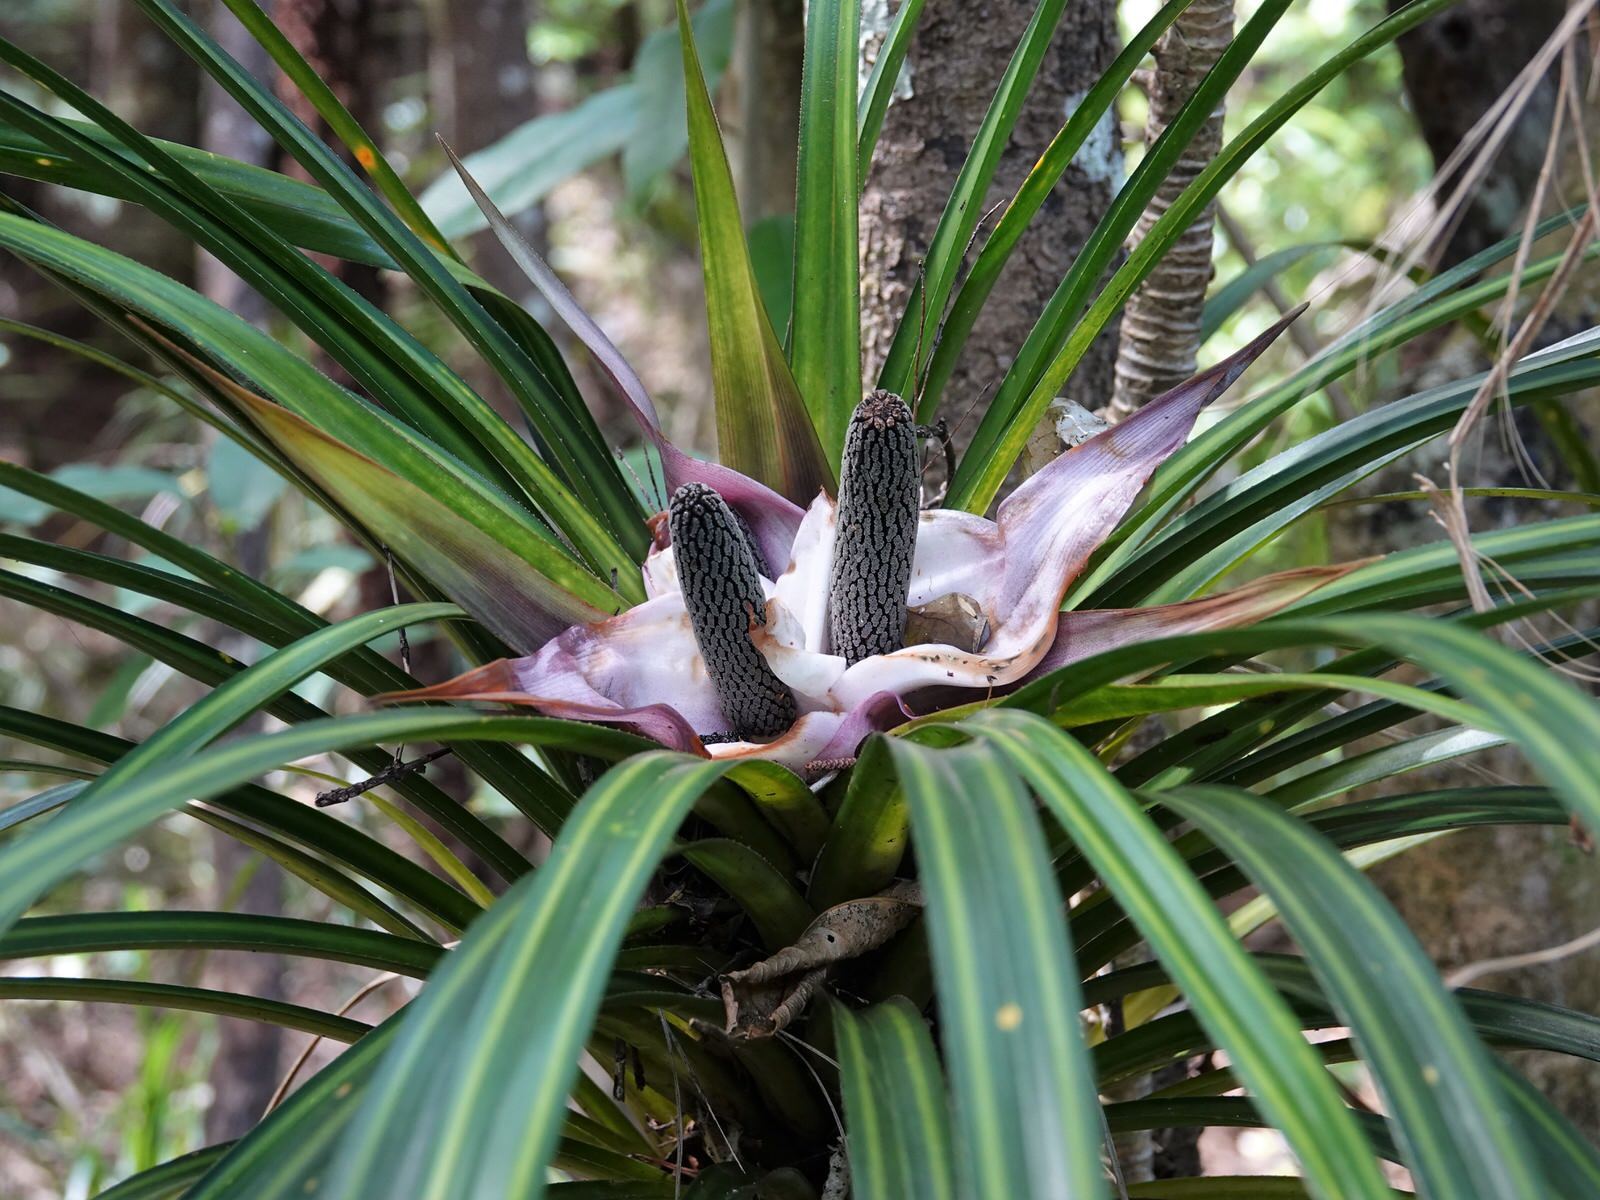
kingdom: Plantae
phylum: Tracheophyta
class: Liliopsida
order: Pandanales
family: Pandanaceae
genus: Freycinetia
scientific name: Freycinetia banksii
